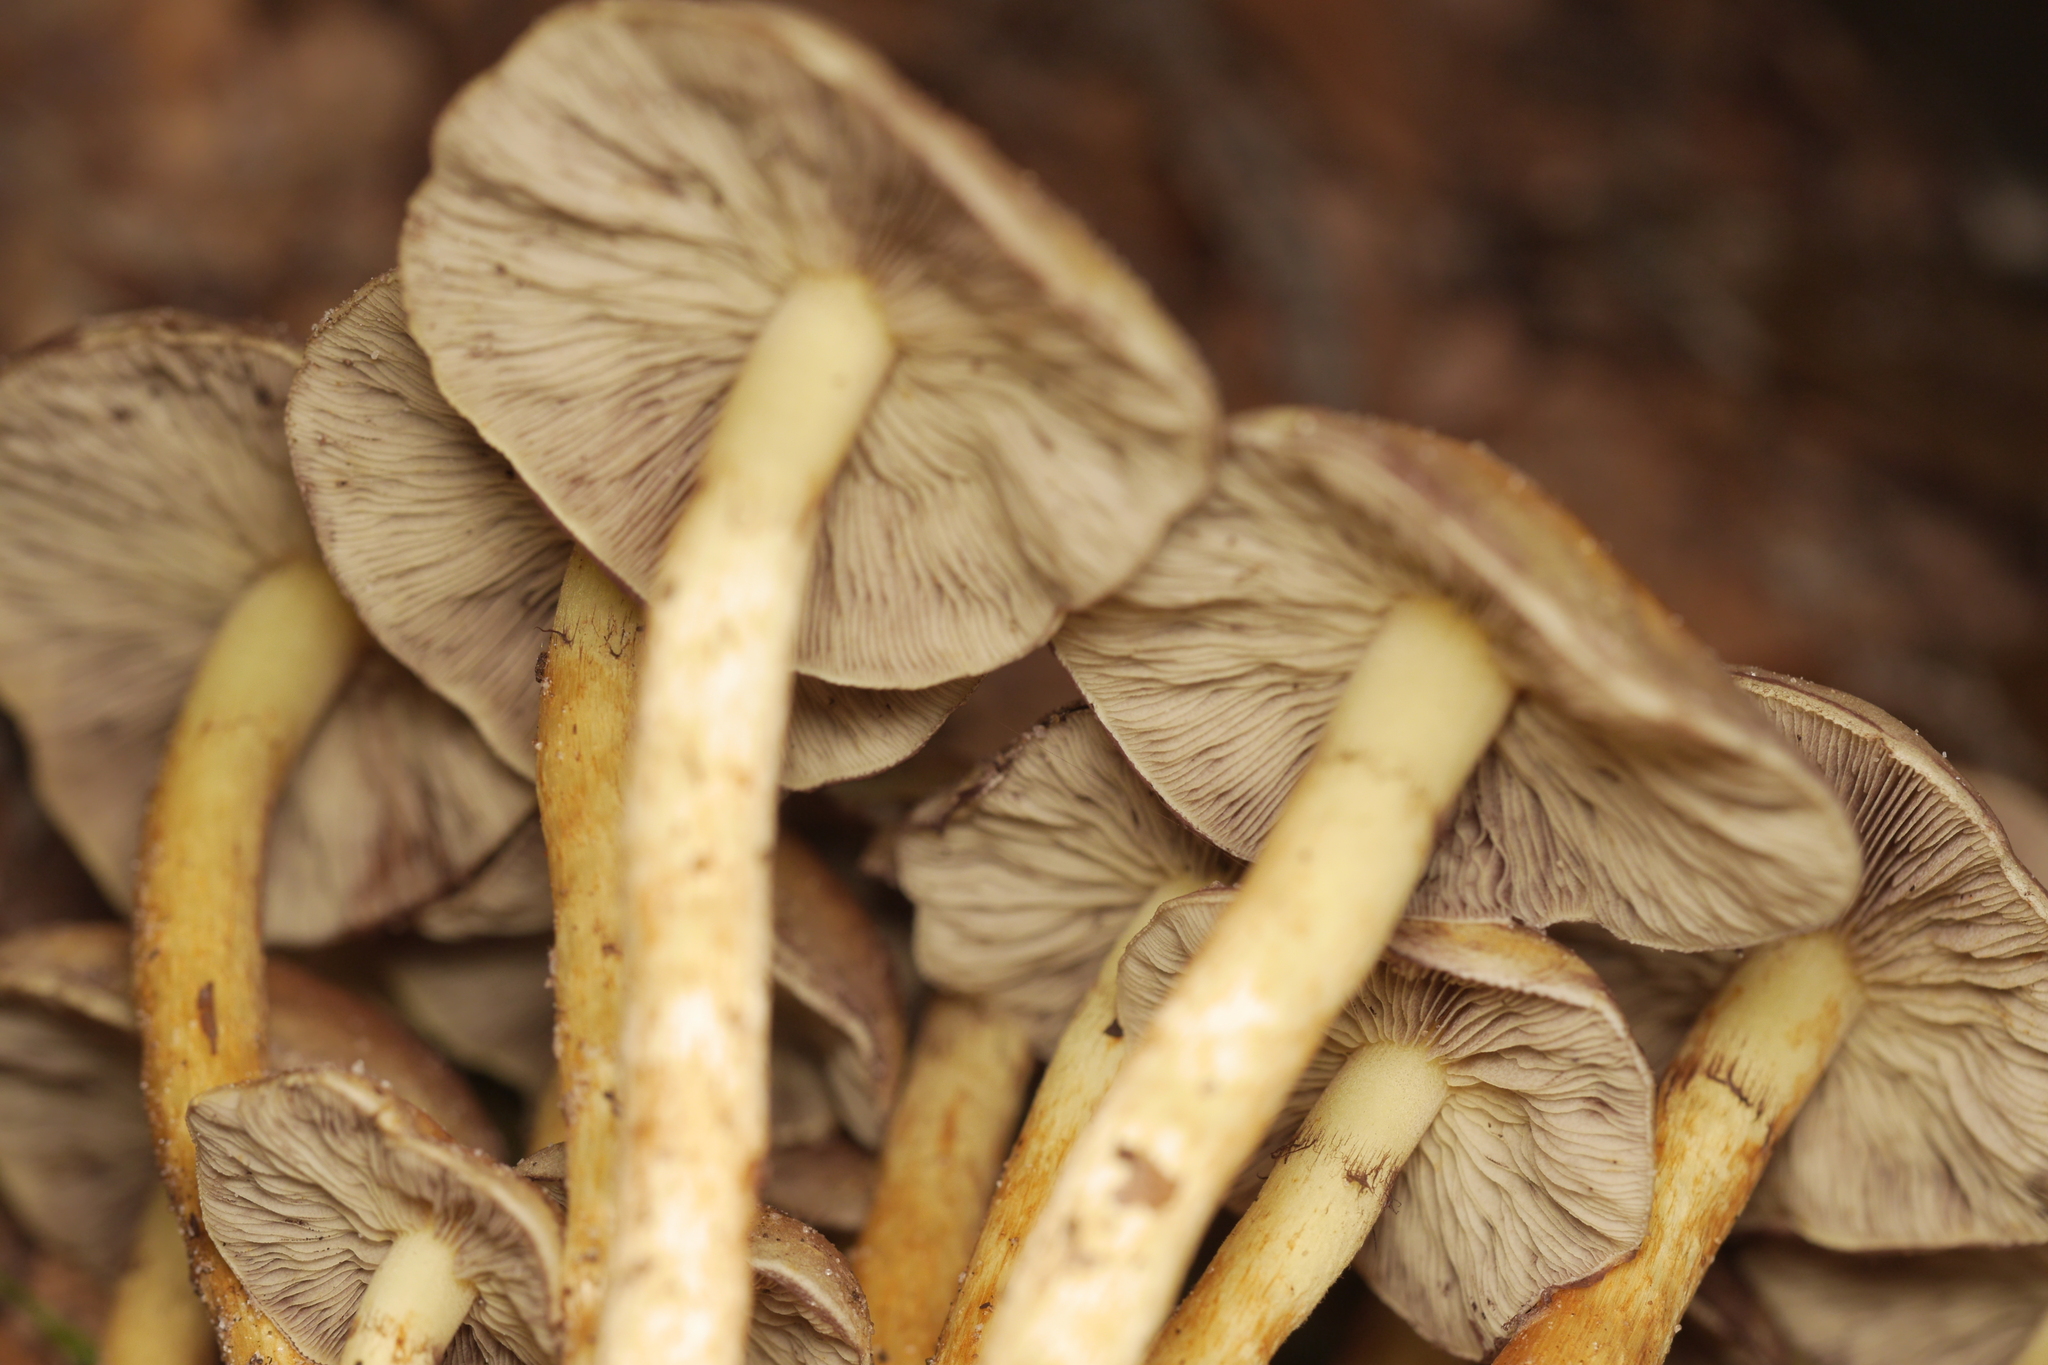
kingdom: Fungi
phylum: Basidiomycota
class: Agaricomycetes
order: Agaricales
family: Strophariaceae
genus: Hypholoma
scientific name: Hypholoma fasciculare
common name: Sulphur tuft
